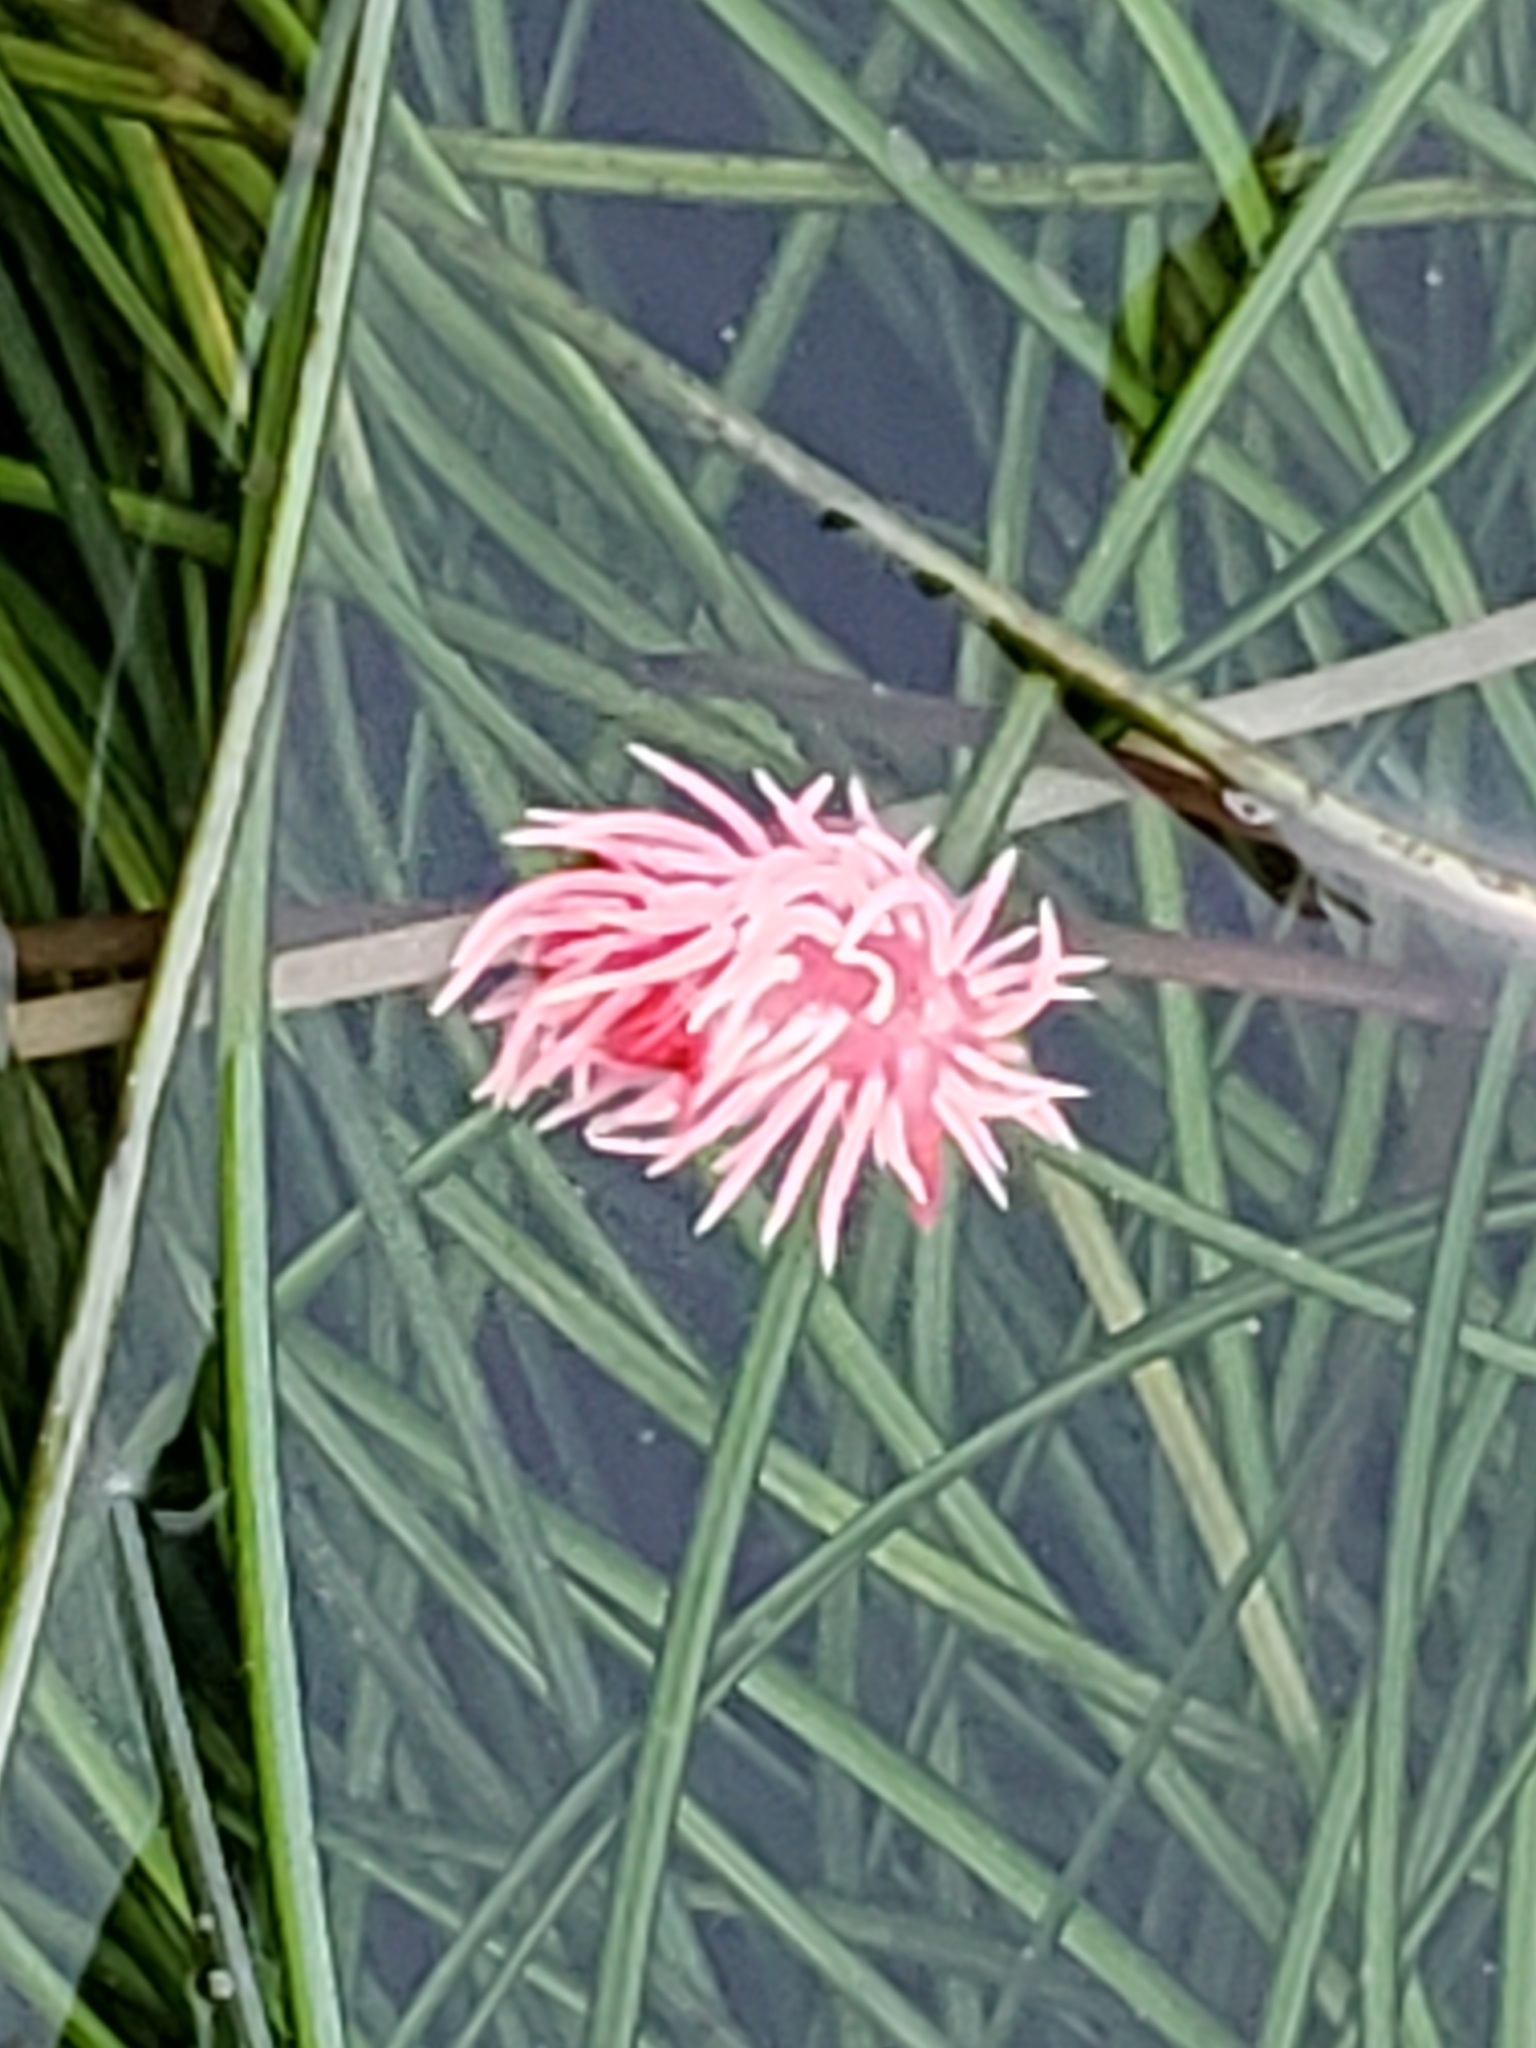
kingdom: Animalia
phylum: Mollusca
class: Gastropoda
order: Nudibranchia
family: Goniodorididae
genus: Okenia
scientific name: Okenia
